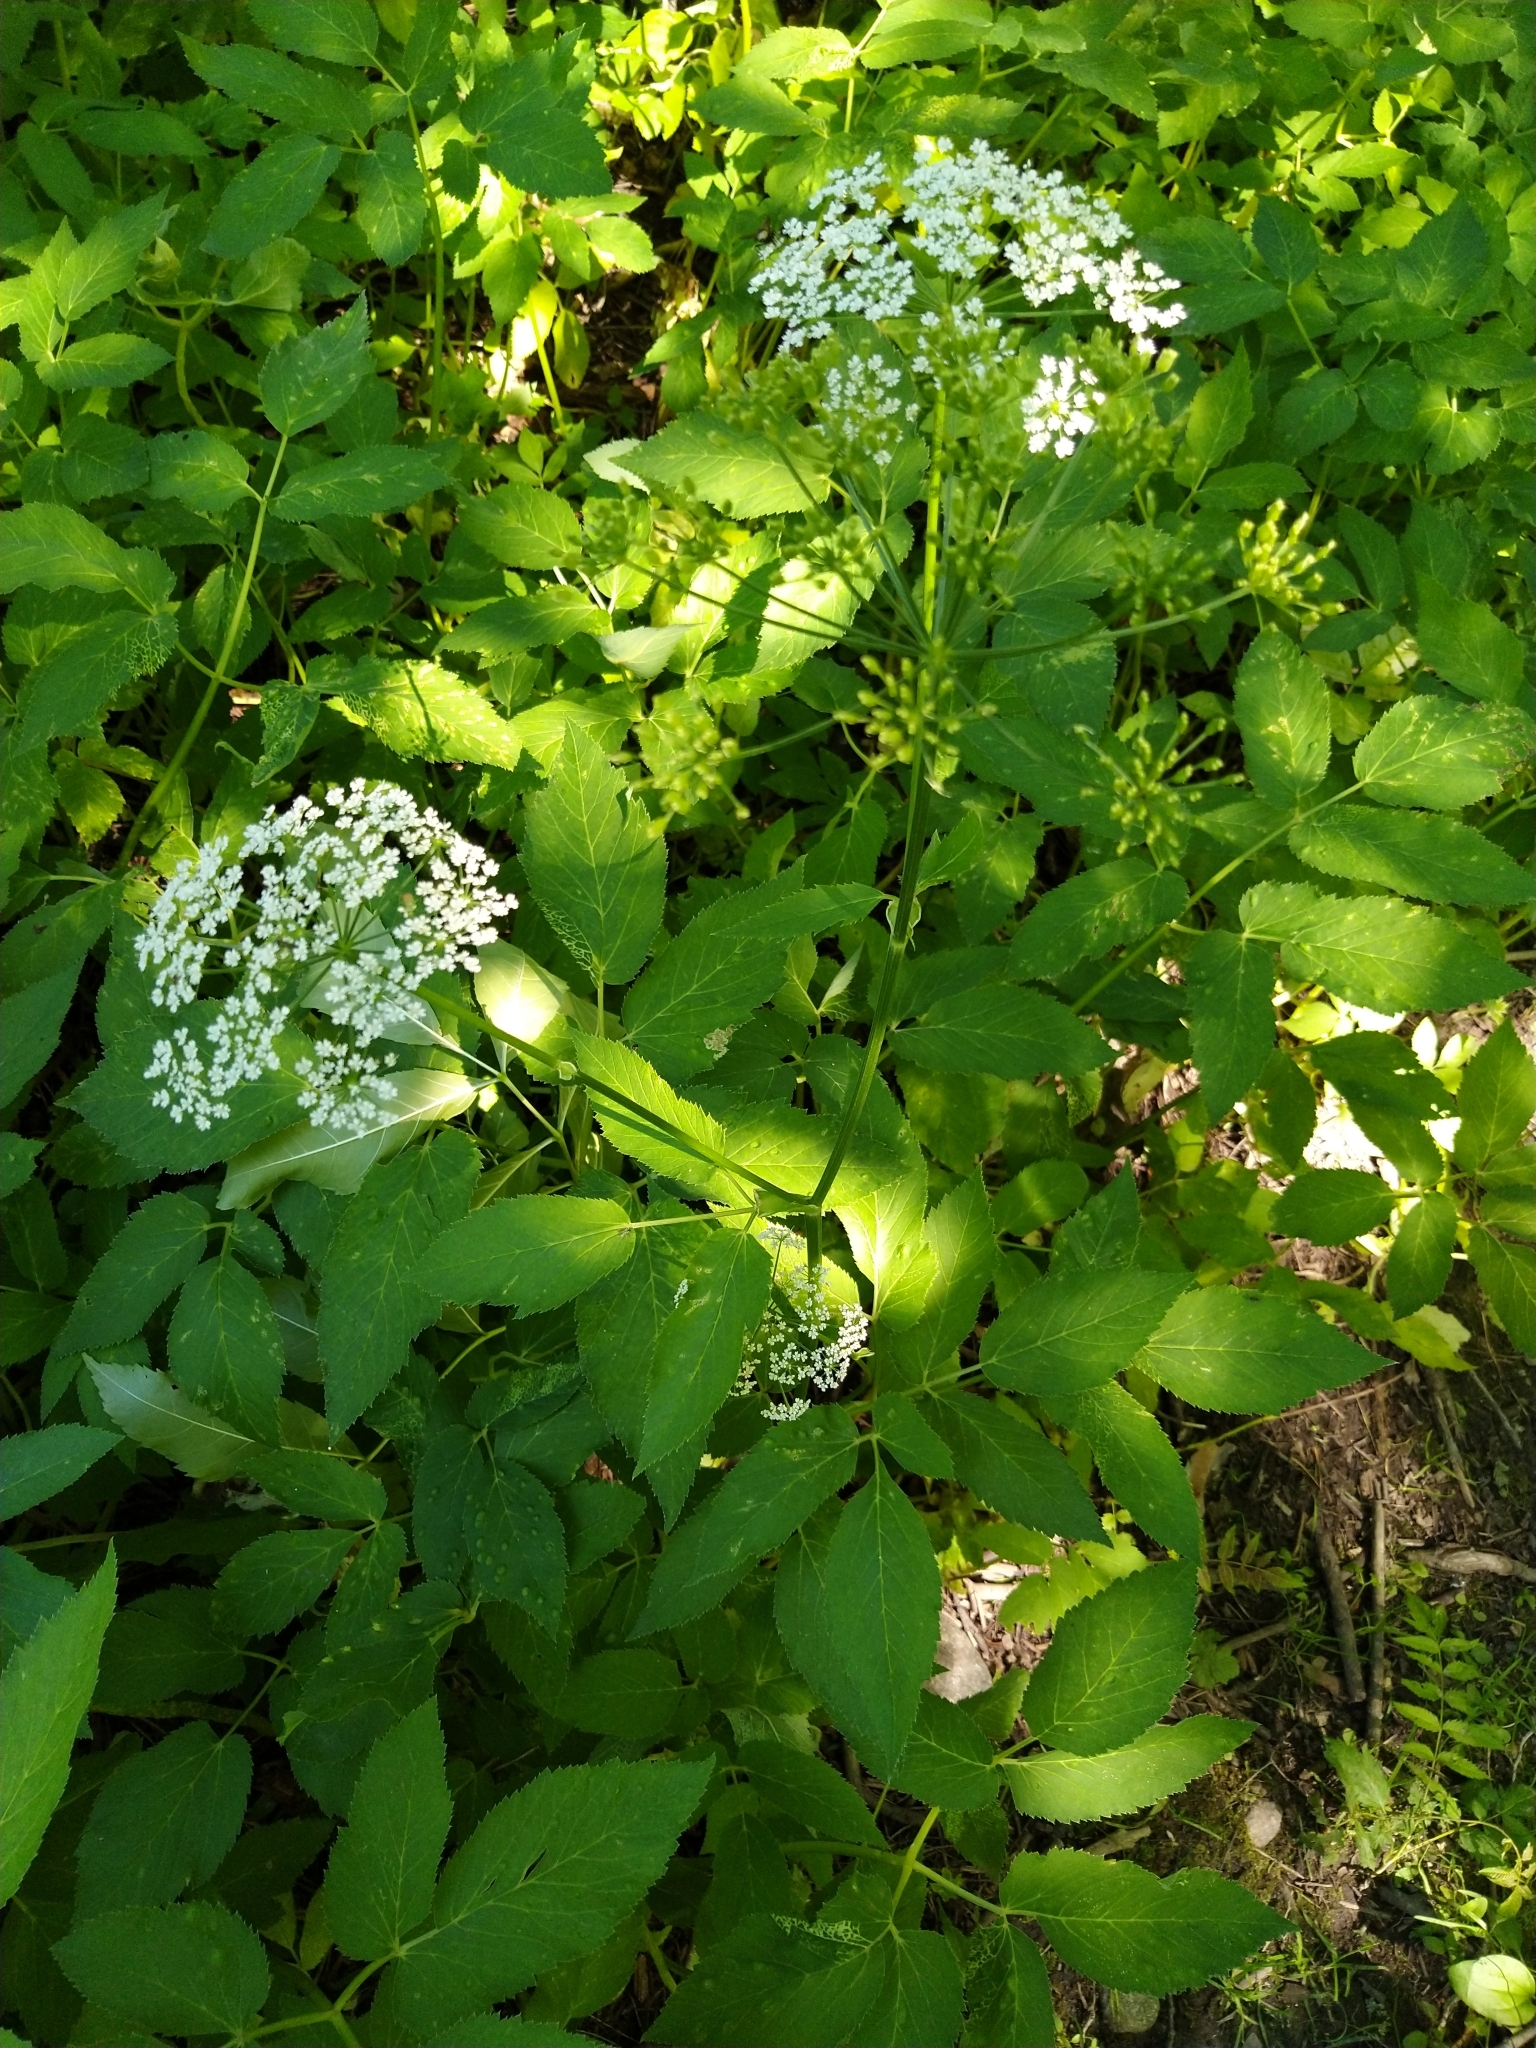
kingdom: Plantae
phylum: Tracheophyta
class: Magnoliopsida
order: Apiales
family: Apiaceae
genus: Aegopodium
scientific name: Aegopodium podagraria
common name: Ground-elder
